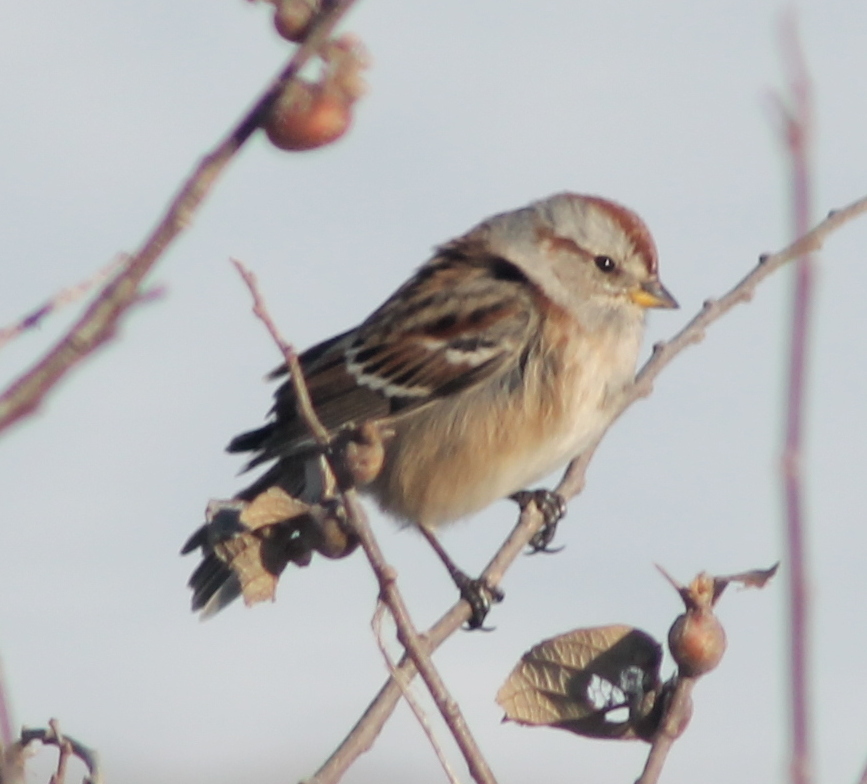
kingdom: Animalia
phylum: Chordata
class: Aves
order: Passeriformes
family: Passerellidae
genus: Spizelloides
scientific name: Spizelloides arborea
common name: American tree sparrow
